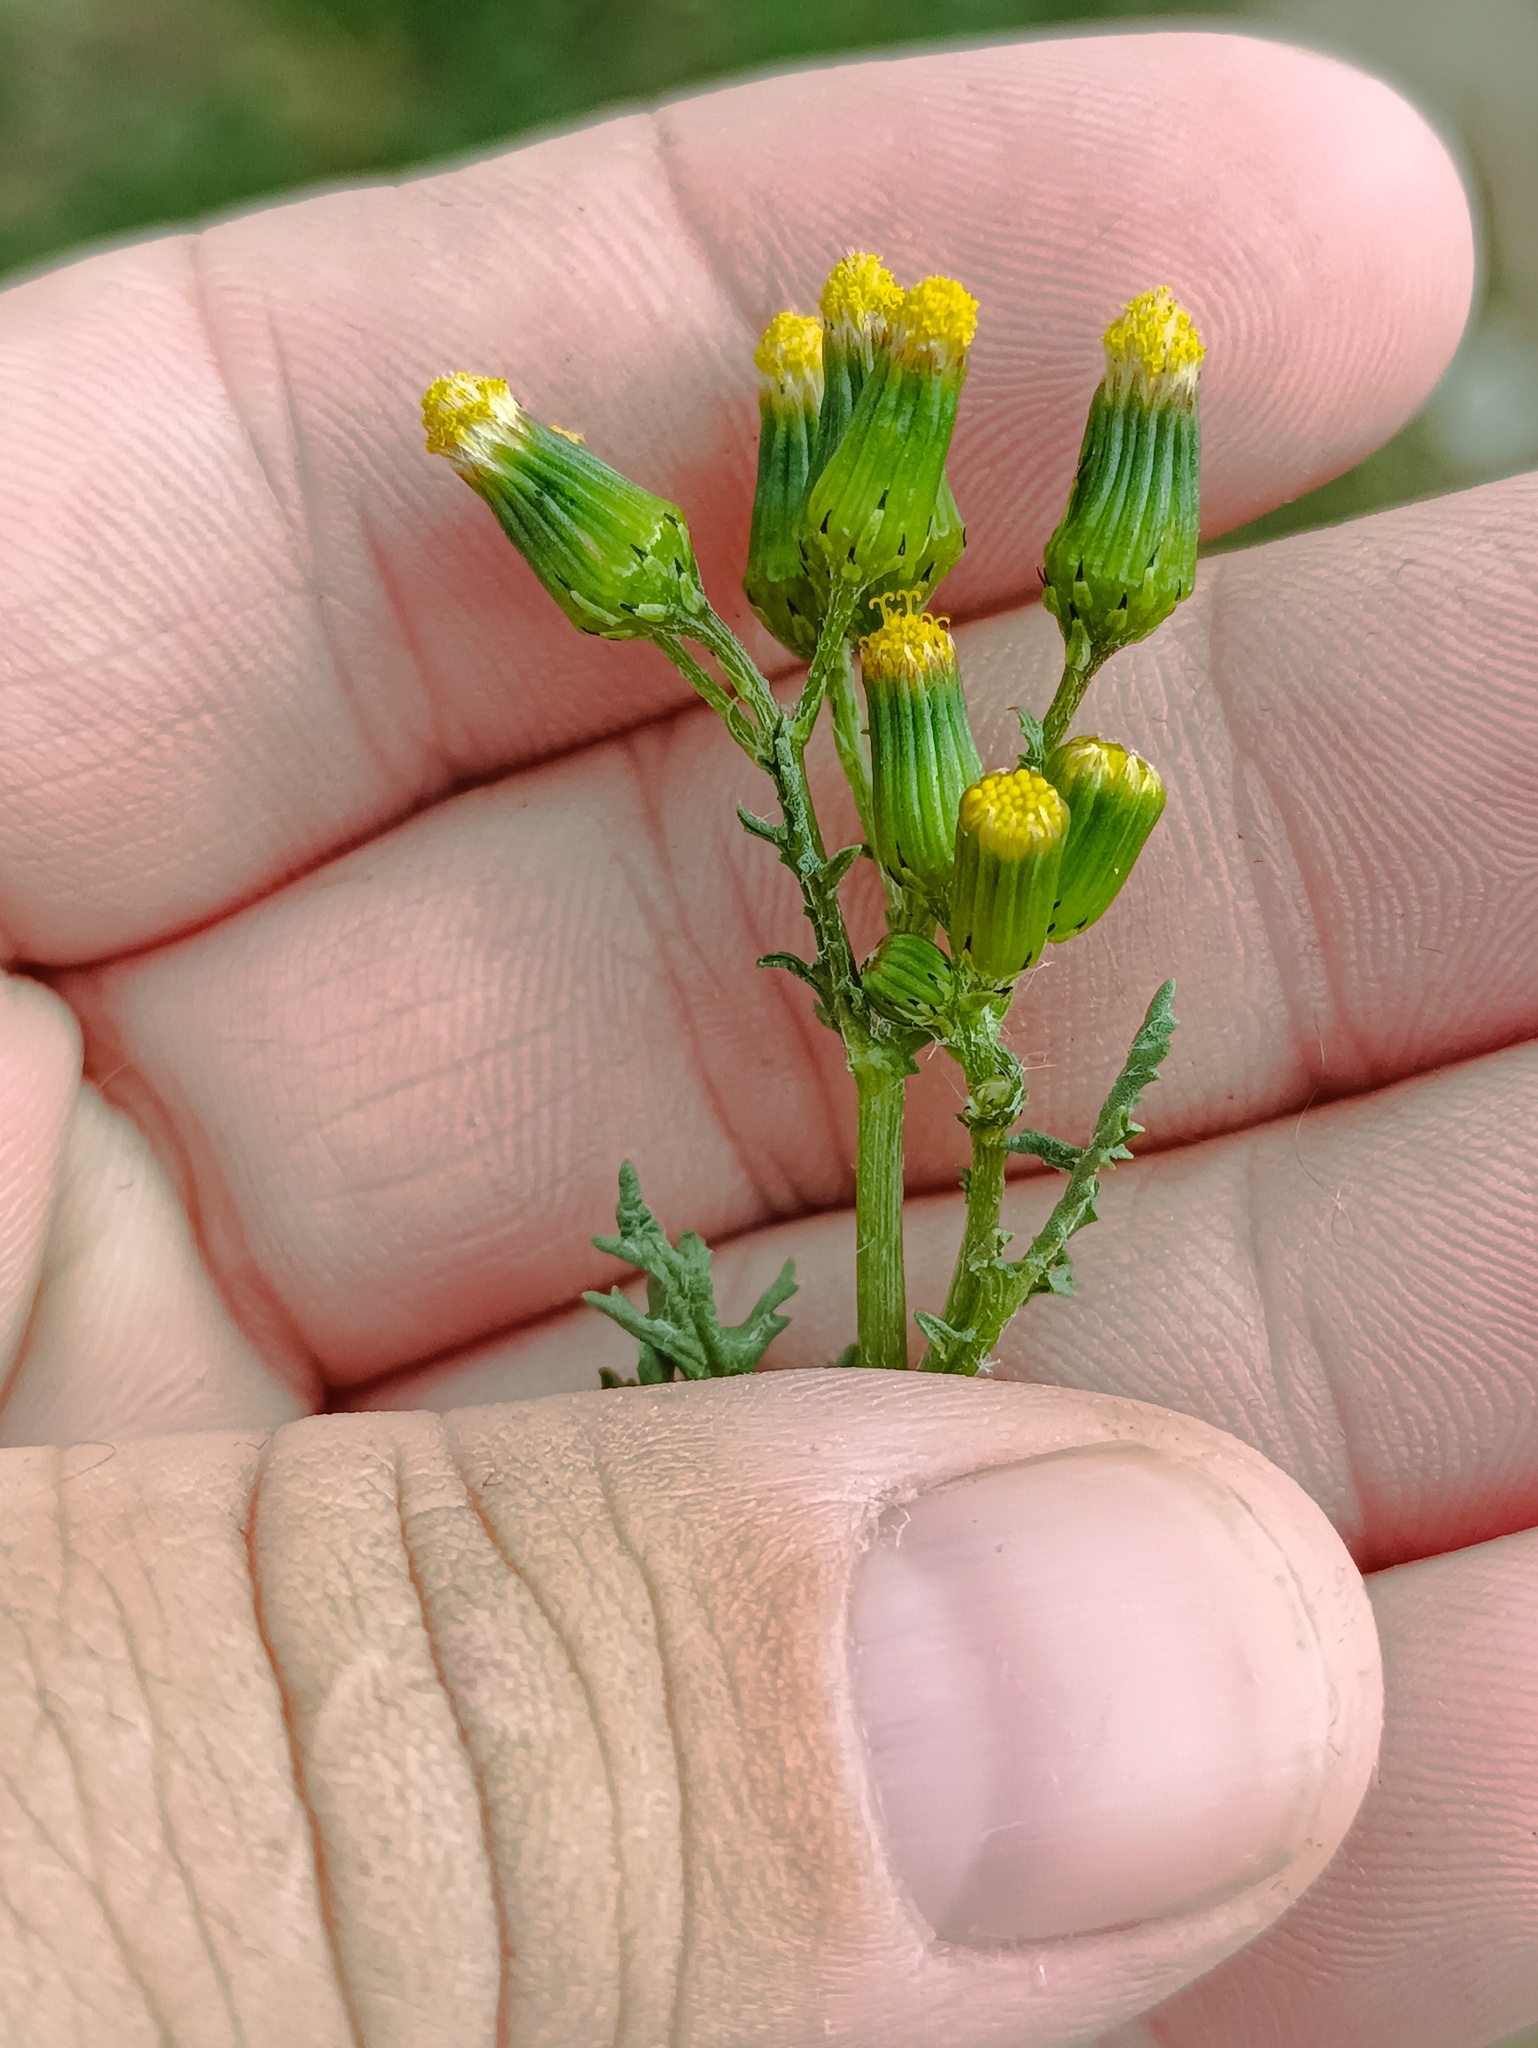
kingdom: Plantae
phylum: Tracheophyta
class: Magnoliopsida
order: Asterales
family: Asteraceae
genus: Senecio
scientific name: Senecio vulgaris
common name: Old-man-in-the-spring
